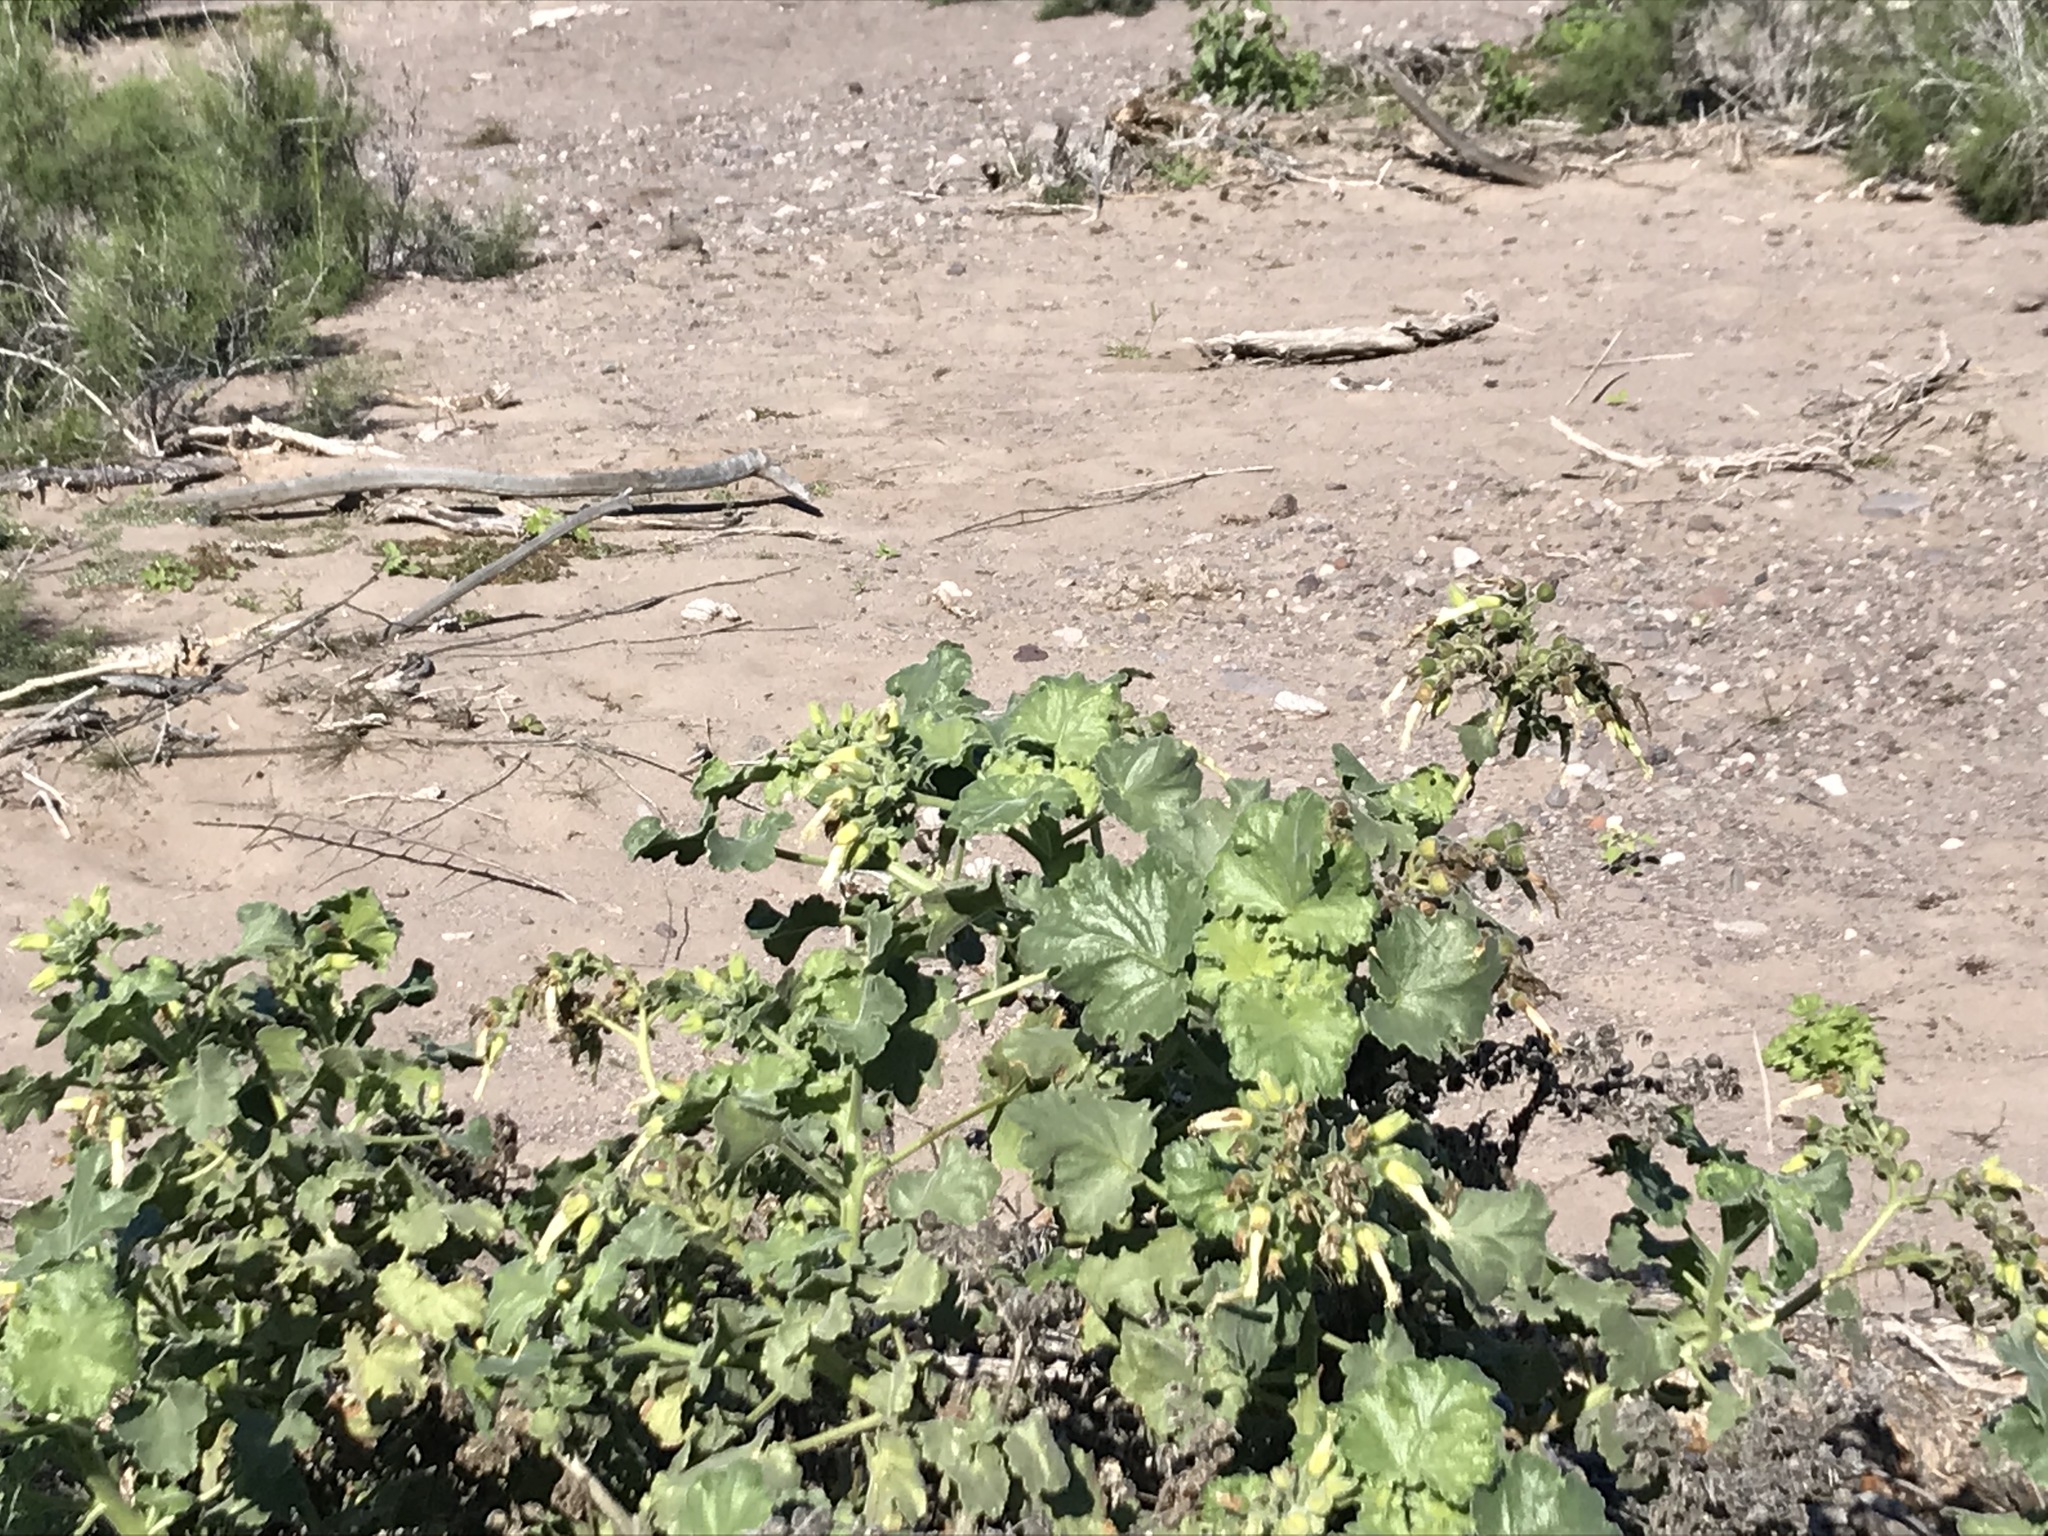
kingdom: Plantae
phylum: Tracheophyta
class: Magnoliopsida
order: Cornales
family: Loasaceae
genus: Eucnide
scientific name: Eucnide cordata
